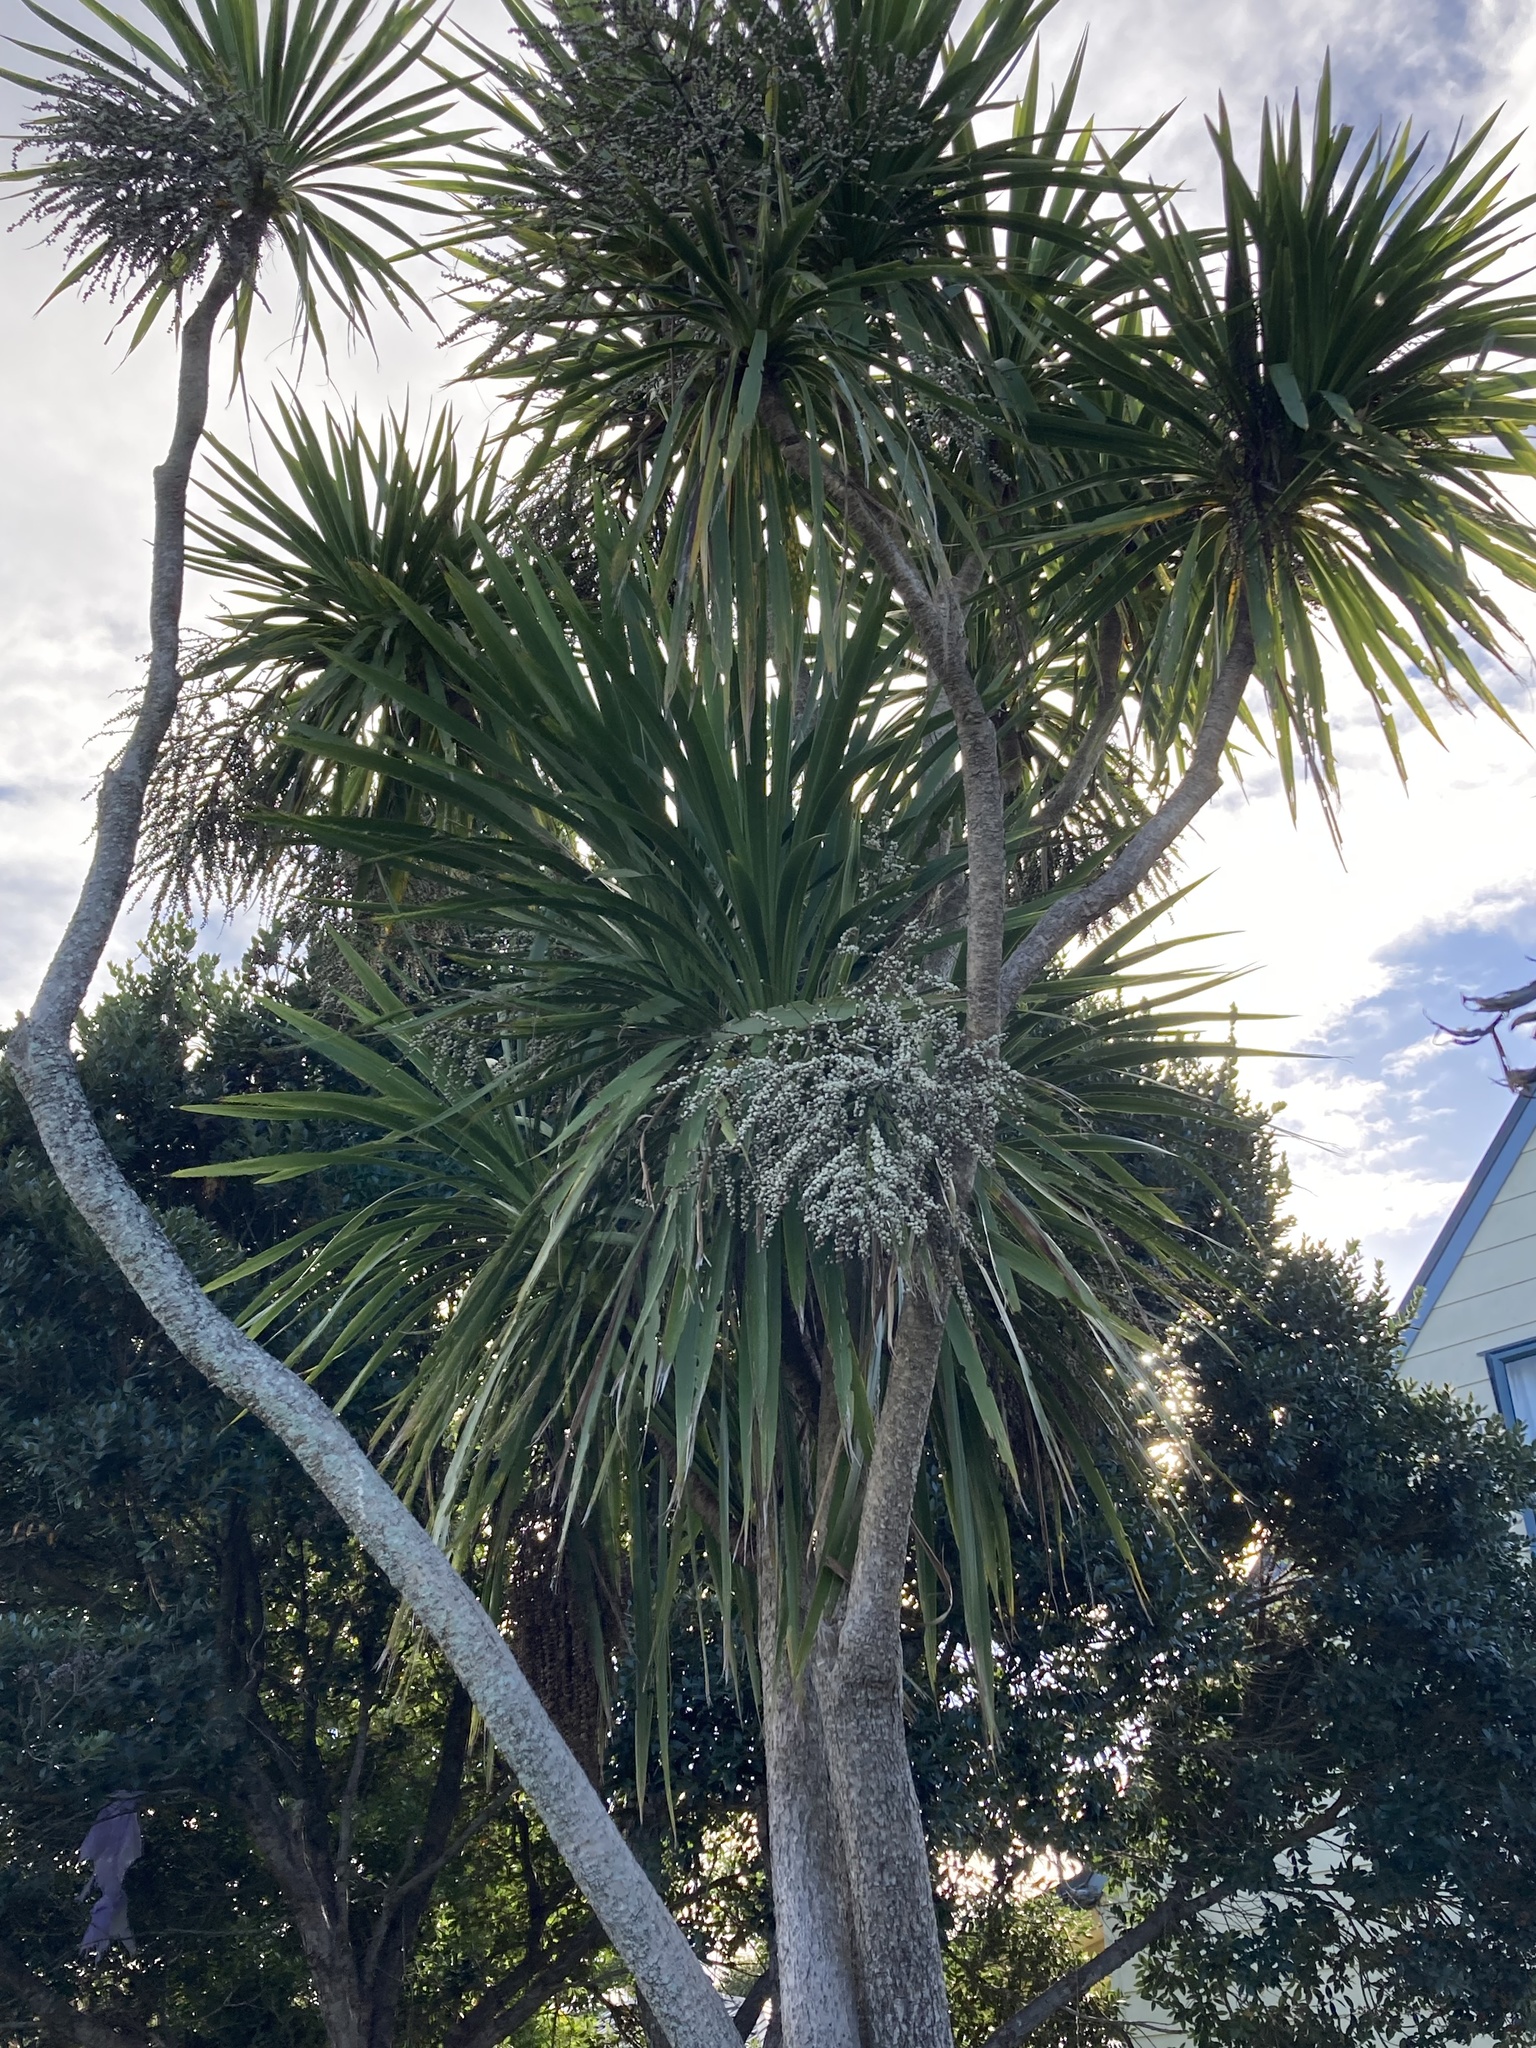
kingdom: Plantae
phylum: Tracheophyta
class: Liliopsida
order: Asparagales
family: Asparagaceae
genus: Cordyline
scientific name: Cordyline australis
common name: Cabbage-palm
